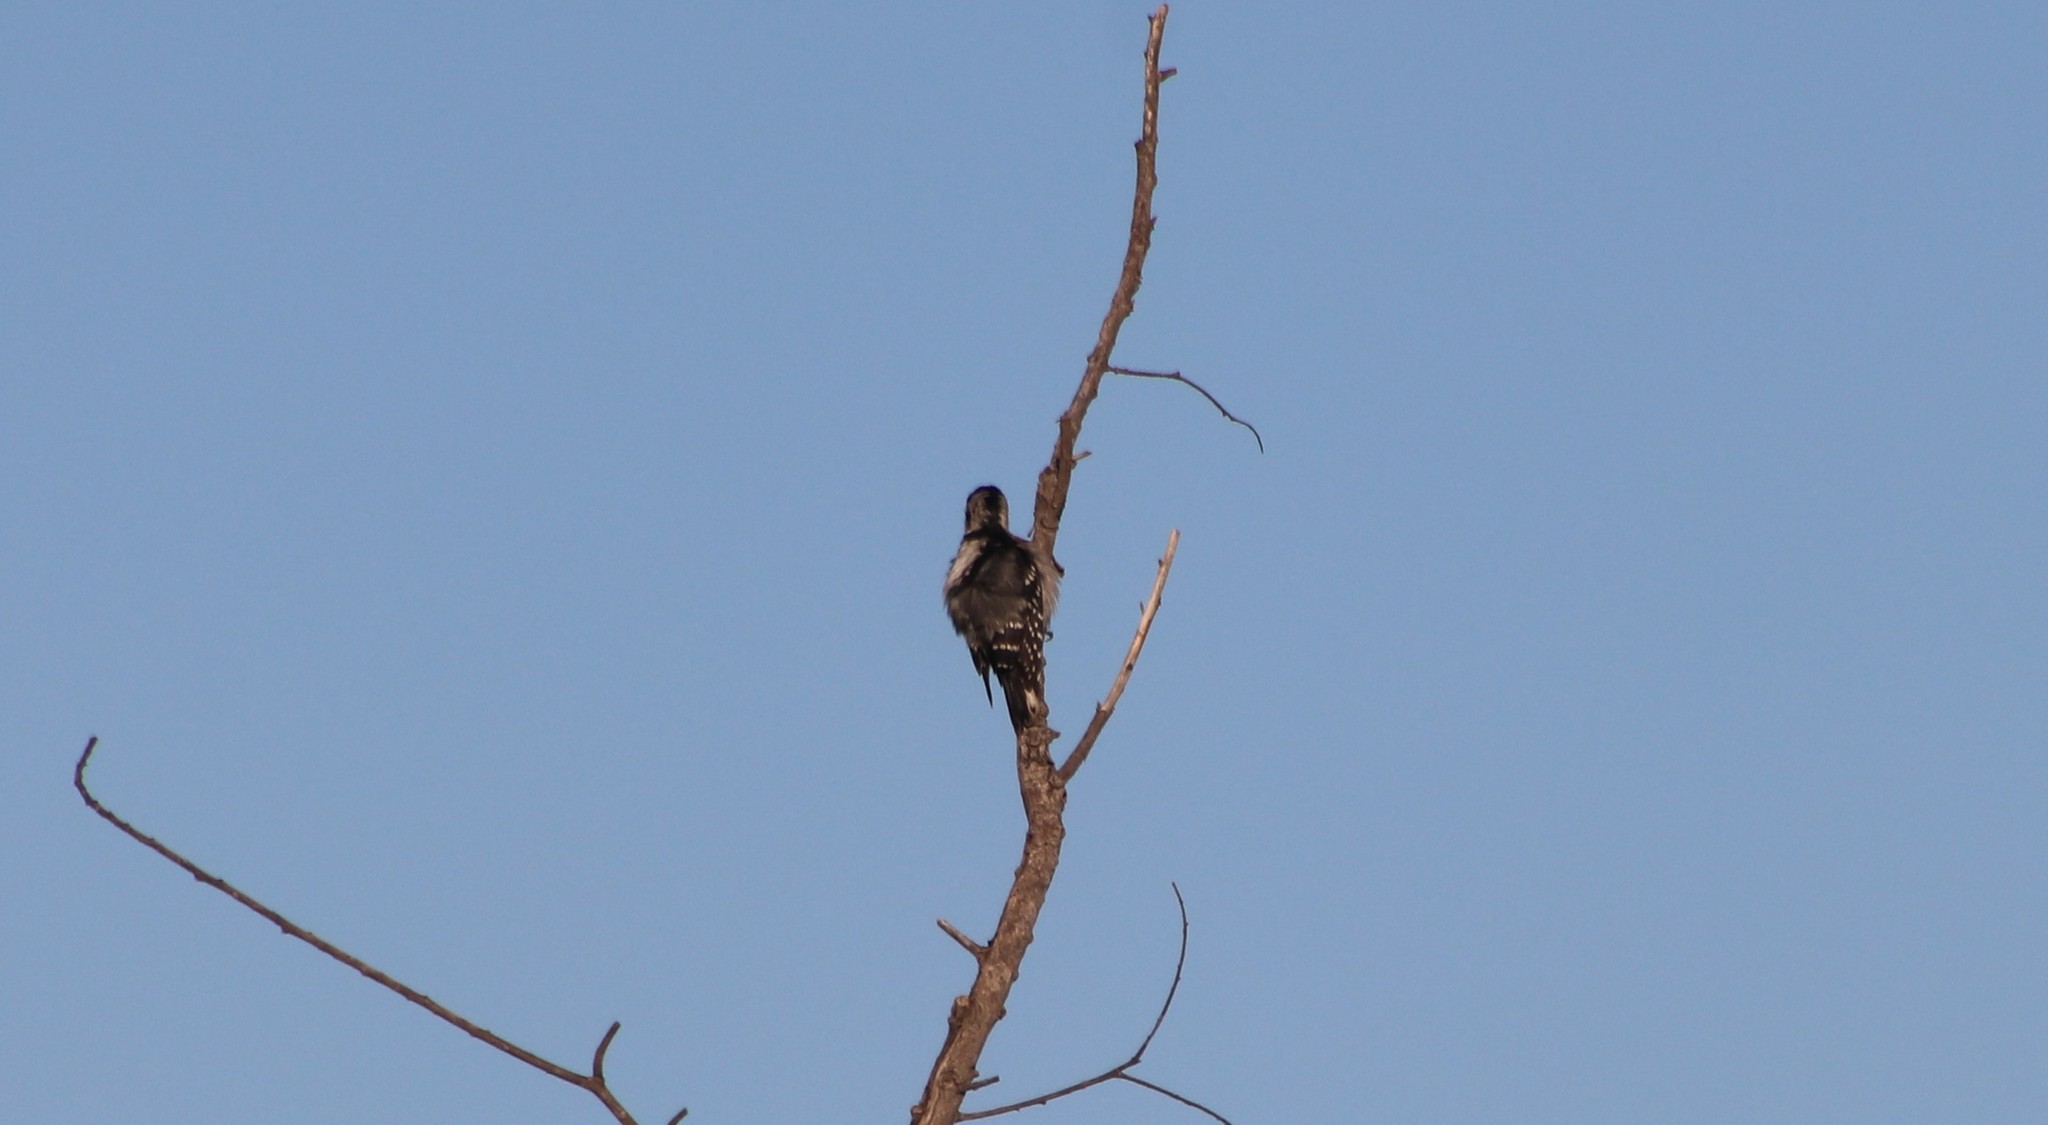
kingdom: Animalia
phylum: Chordata
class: Aves
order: Piciformes
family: Picidae
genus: Dryobates
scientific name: Dryobates pubescens
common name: Downy woodpecker
